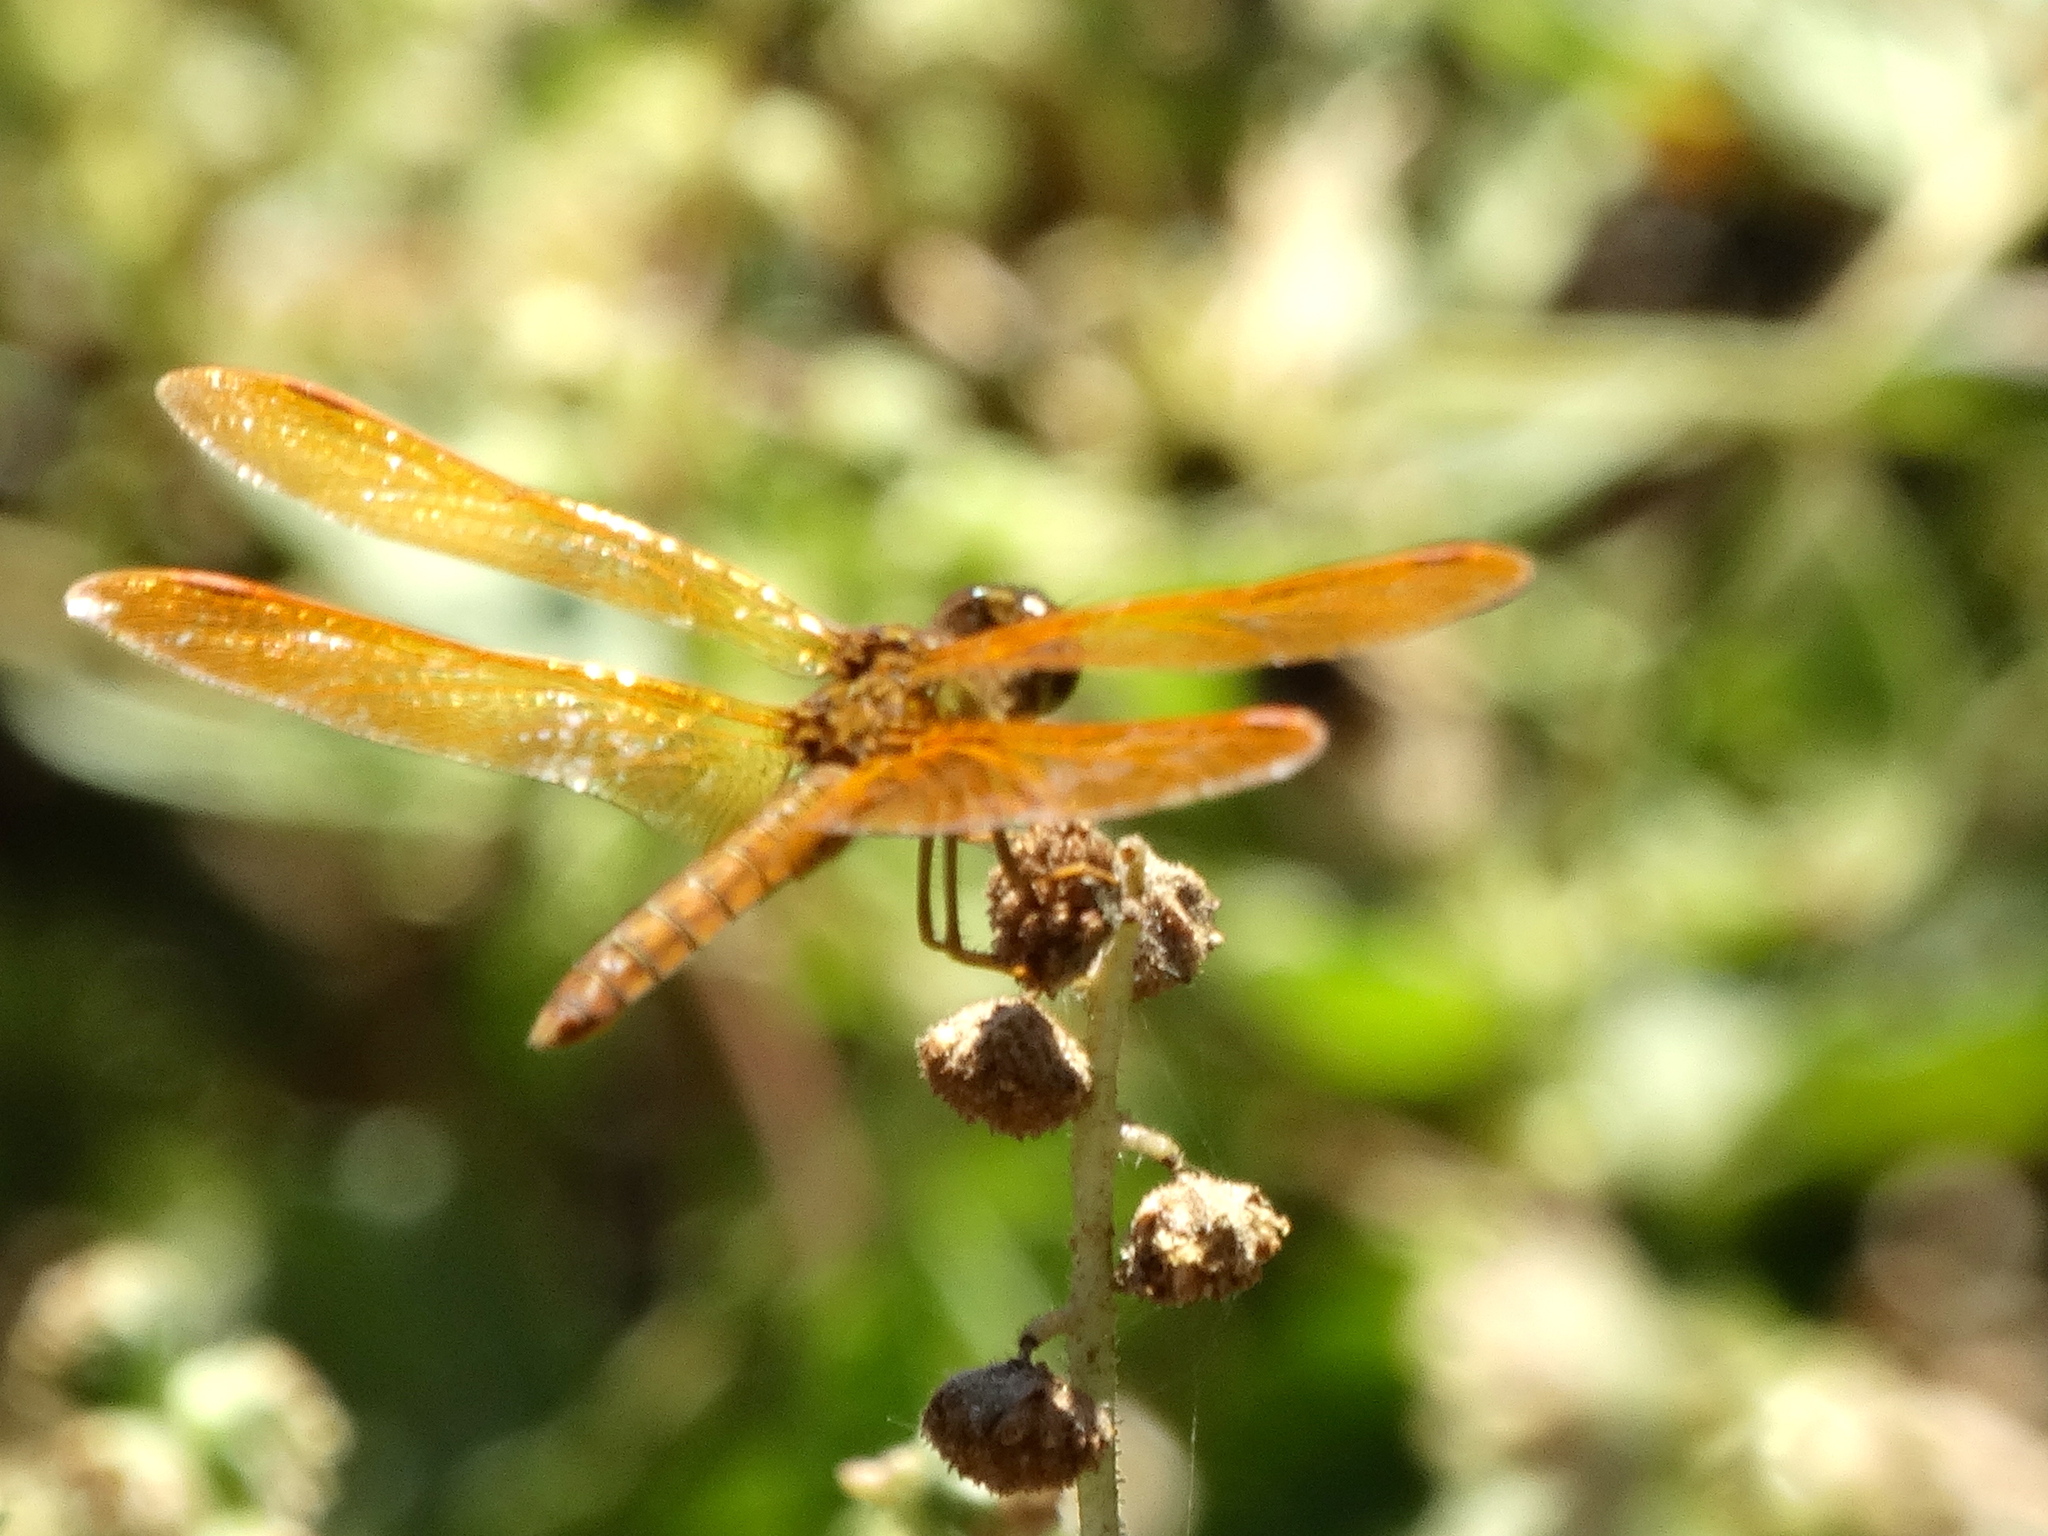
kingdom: Animalia
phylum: Arthropoda
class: Insecta
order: Odonata
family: Libellulidae
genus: Perithemis
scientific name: Perithemis intensa
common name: Mexican amberwing
